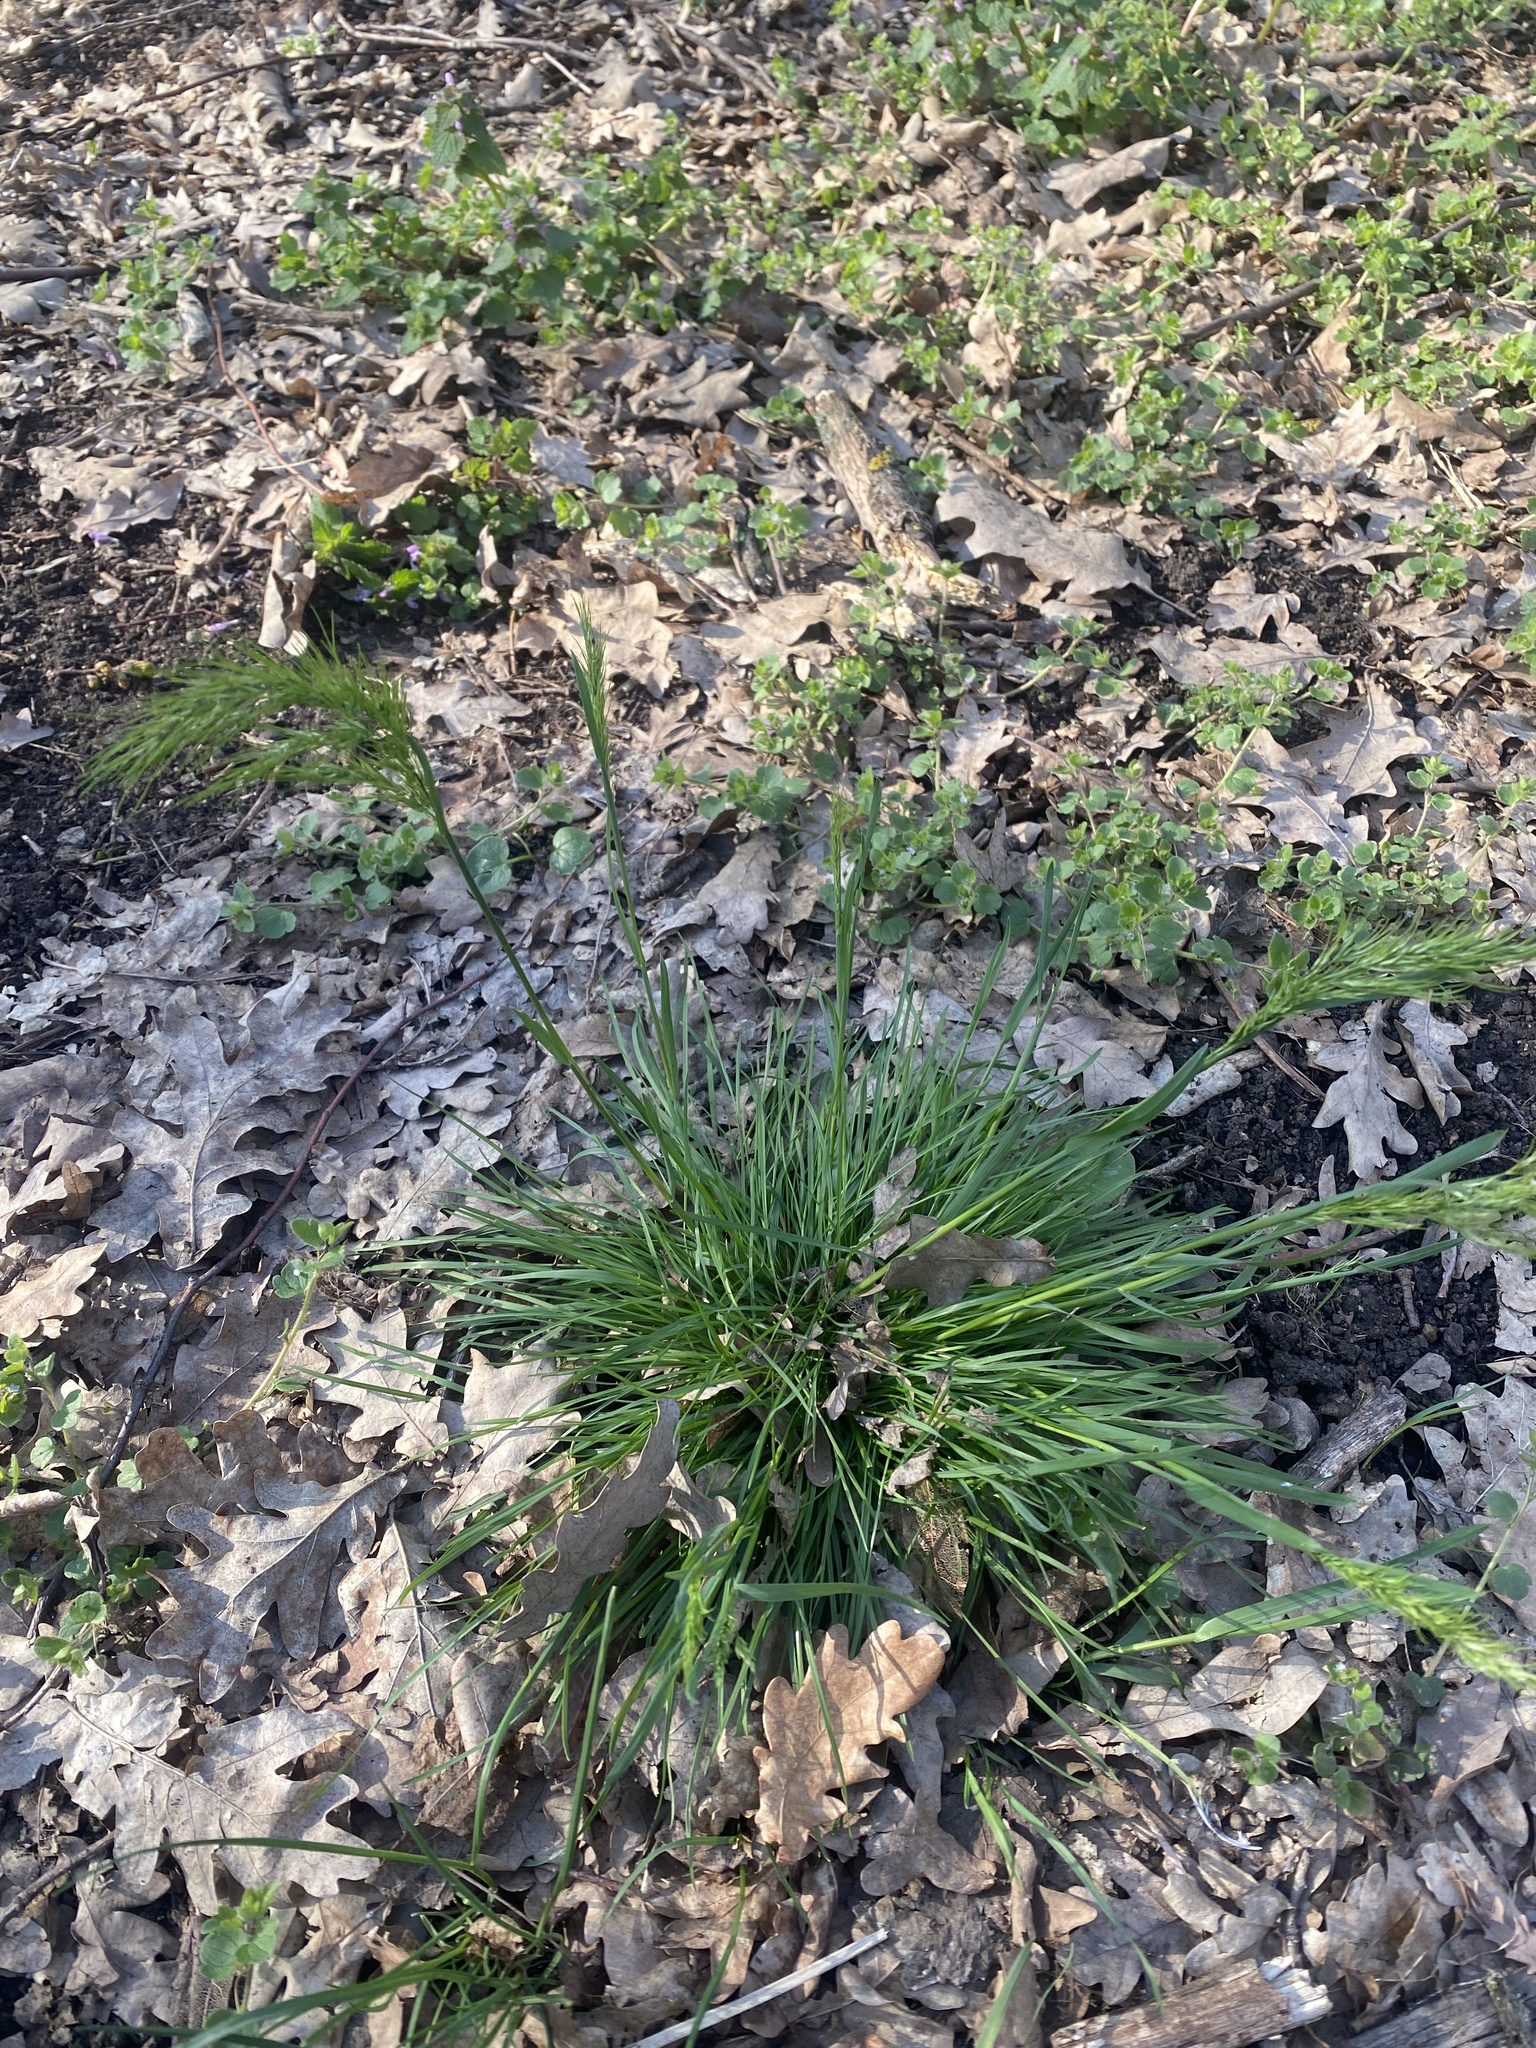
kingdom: Plantae
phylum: Tracheophyta
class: Liliopsida
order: Poales
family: Poaceae
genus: Poa
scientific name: Poa bulbosa
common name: Bulbous bluegrass
